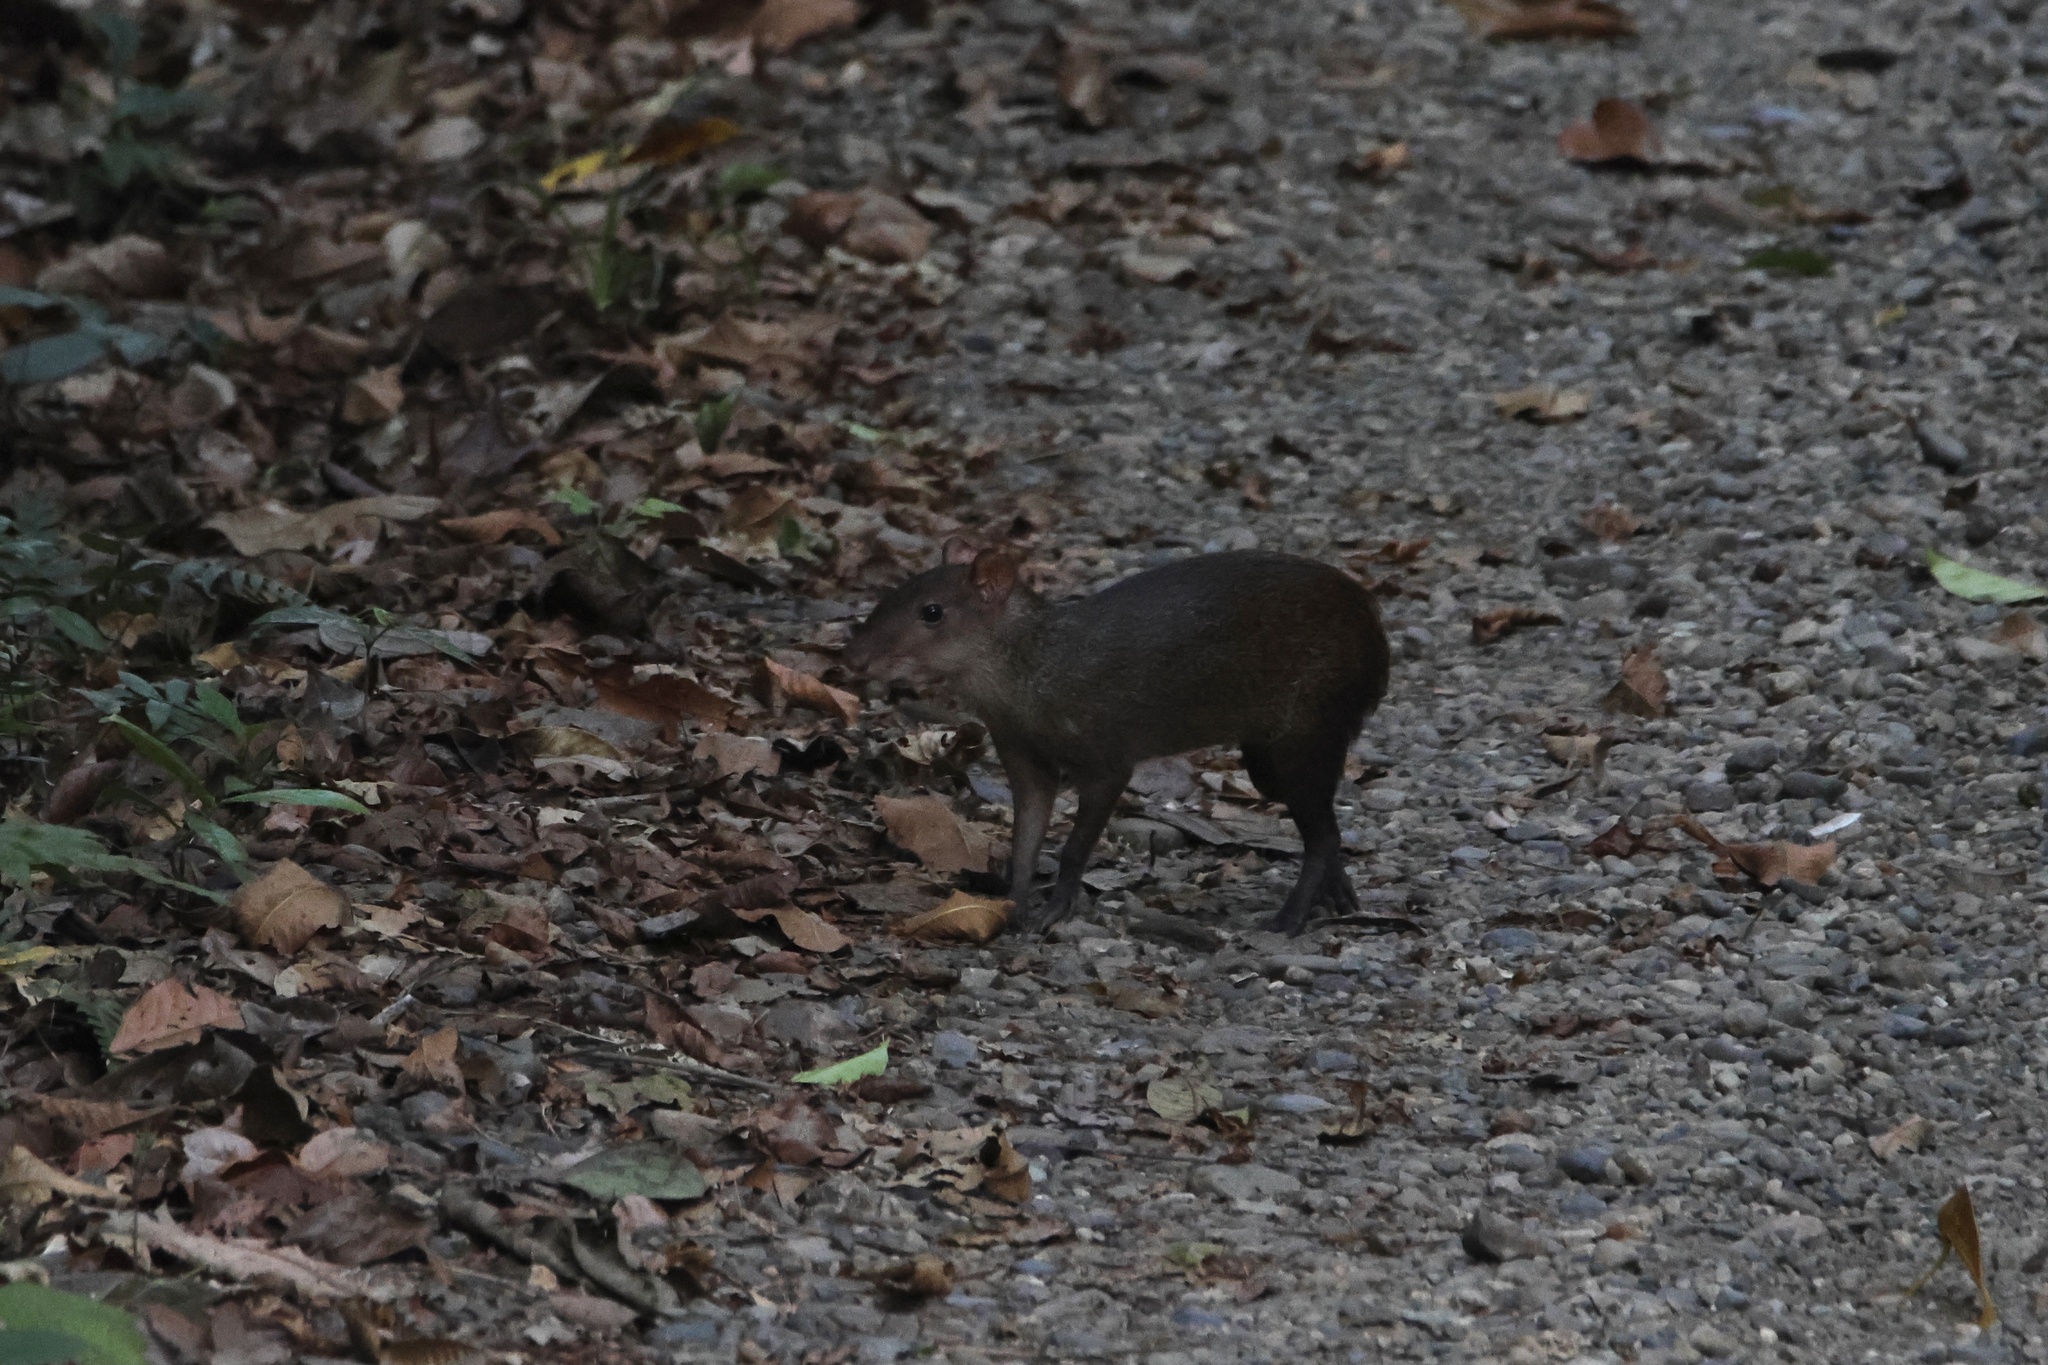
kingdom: Animalia
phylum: Chordata
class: Mammalia
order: Rodentia
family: Dasyproctidae
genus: Dasyprocta
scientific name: Dasyprocta punctata
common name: Central american agouti
